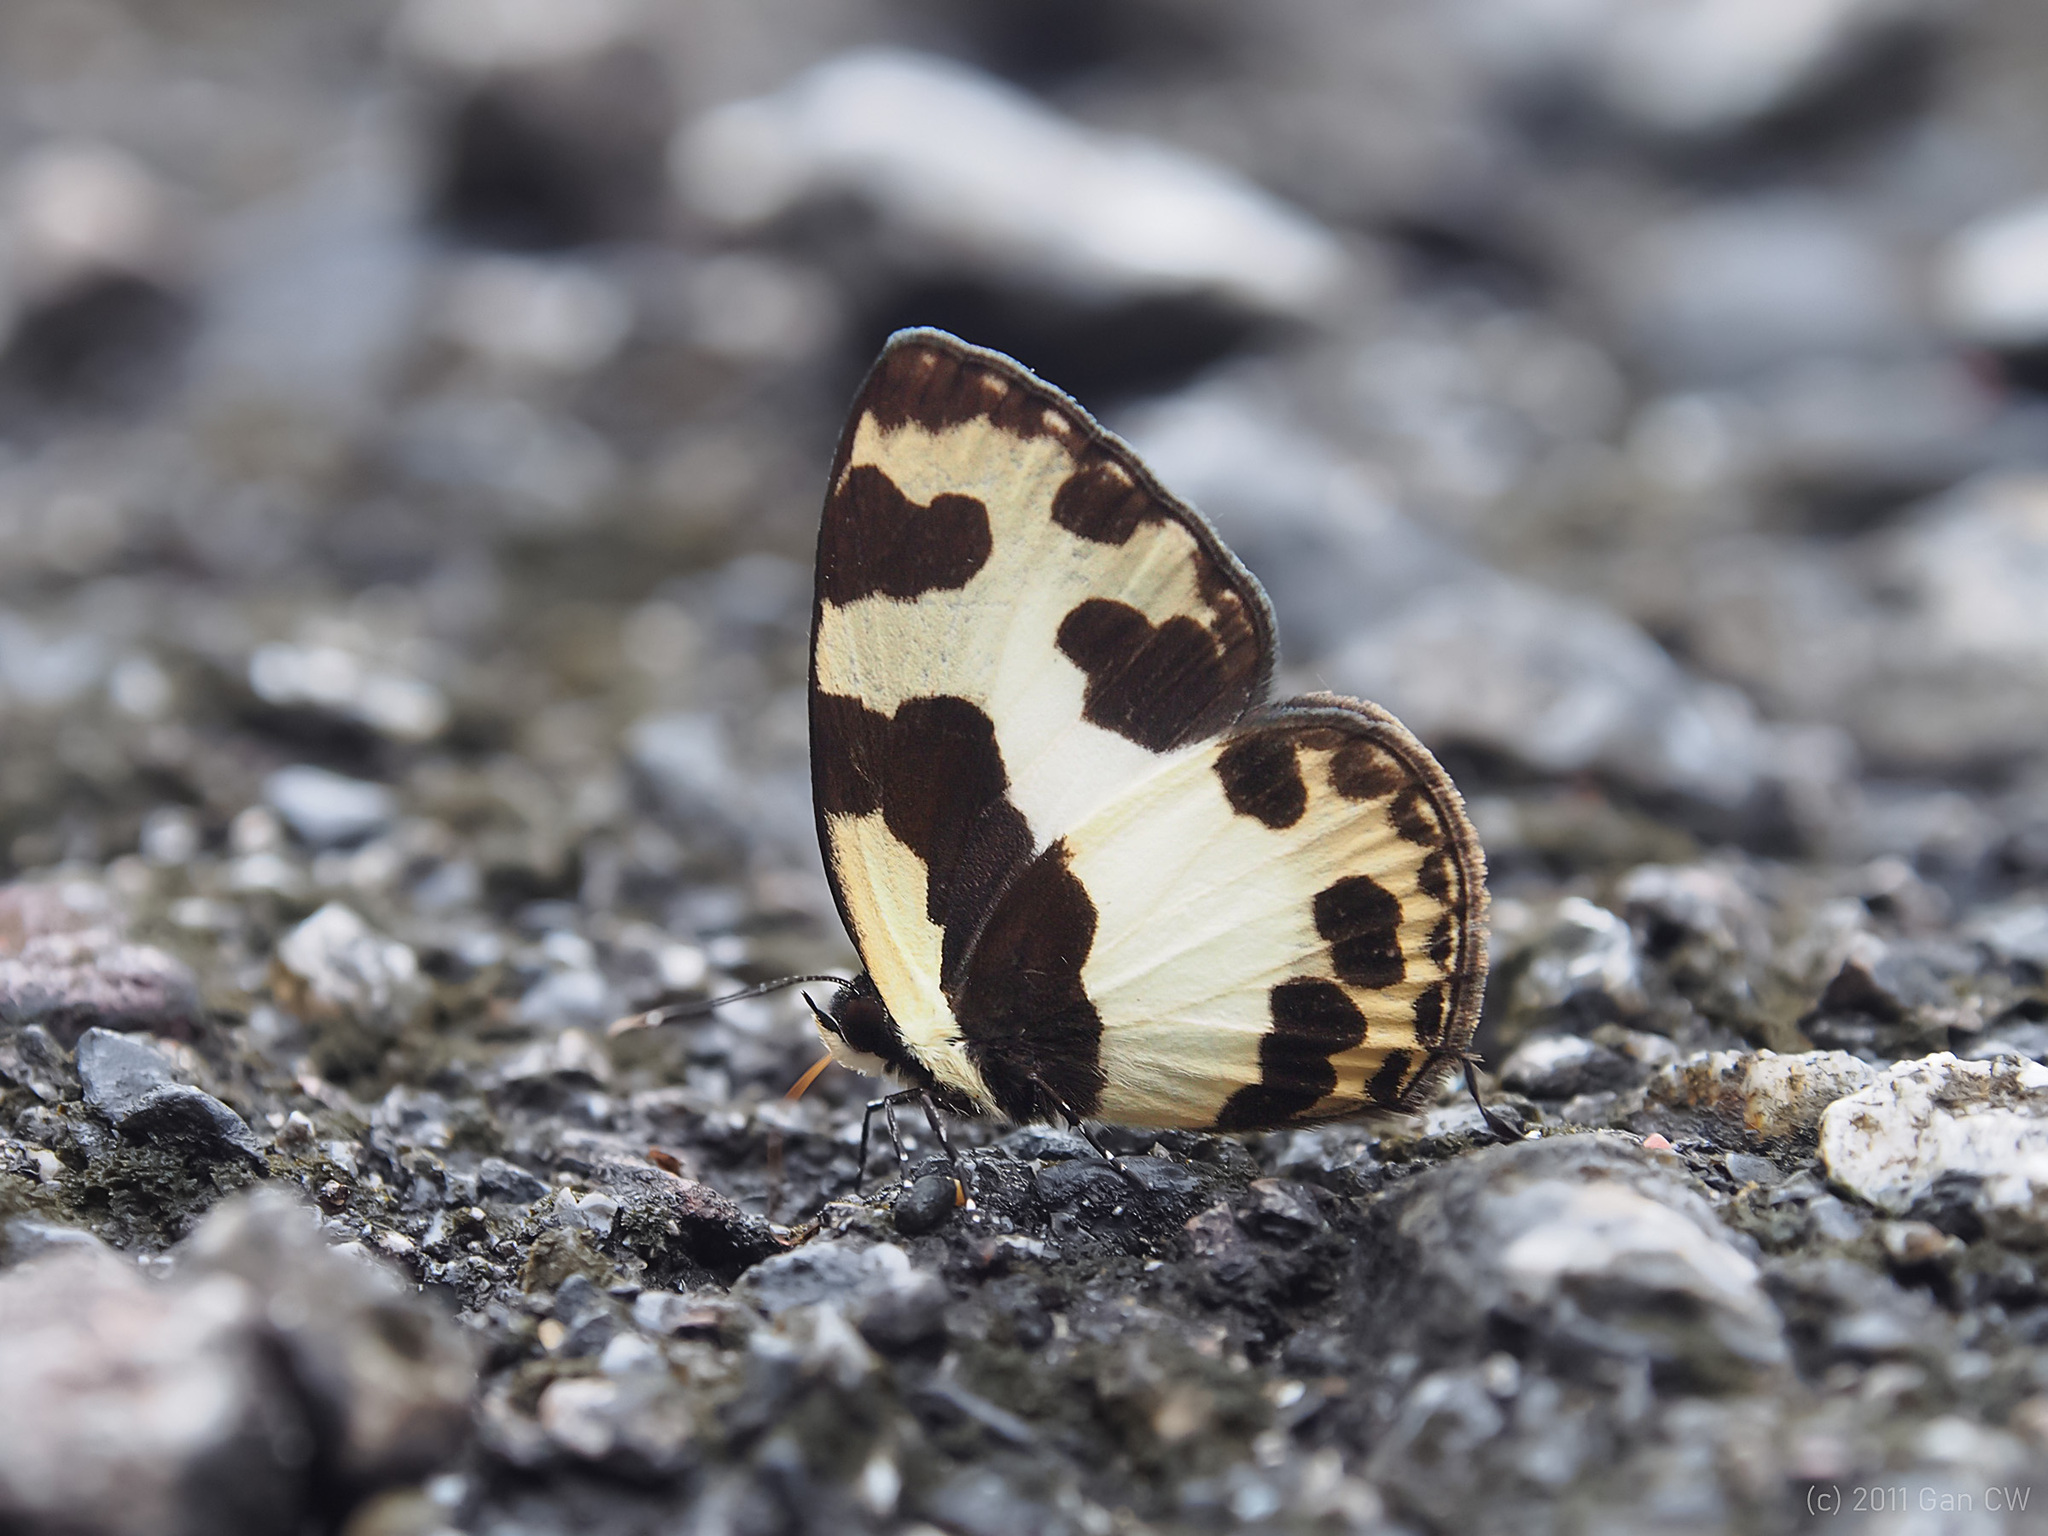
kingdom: Animalia
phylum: Arthropoda
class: Insecta
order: Lepidoptera
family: Lycaenidae
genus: Caleta
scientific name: Caleta elna
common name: Elbowed pierrot
